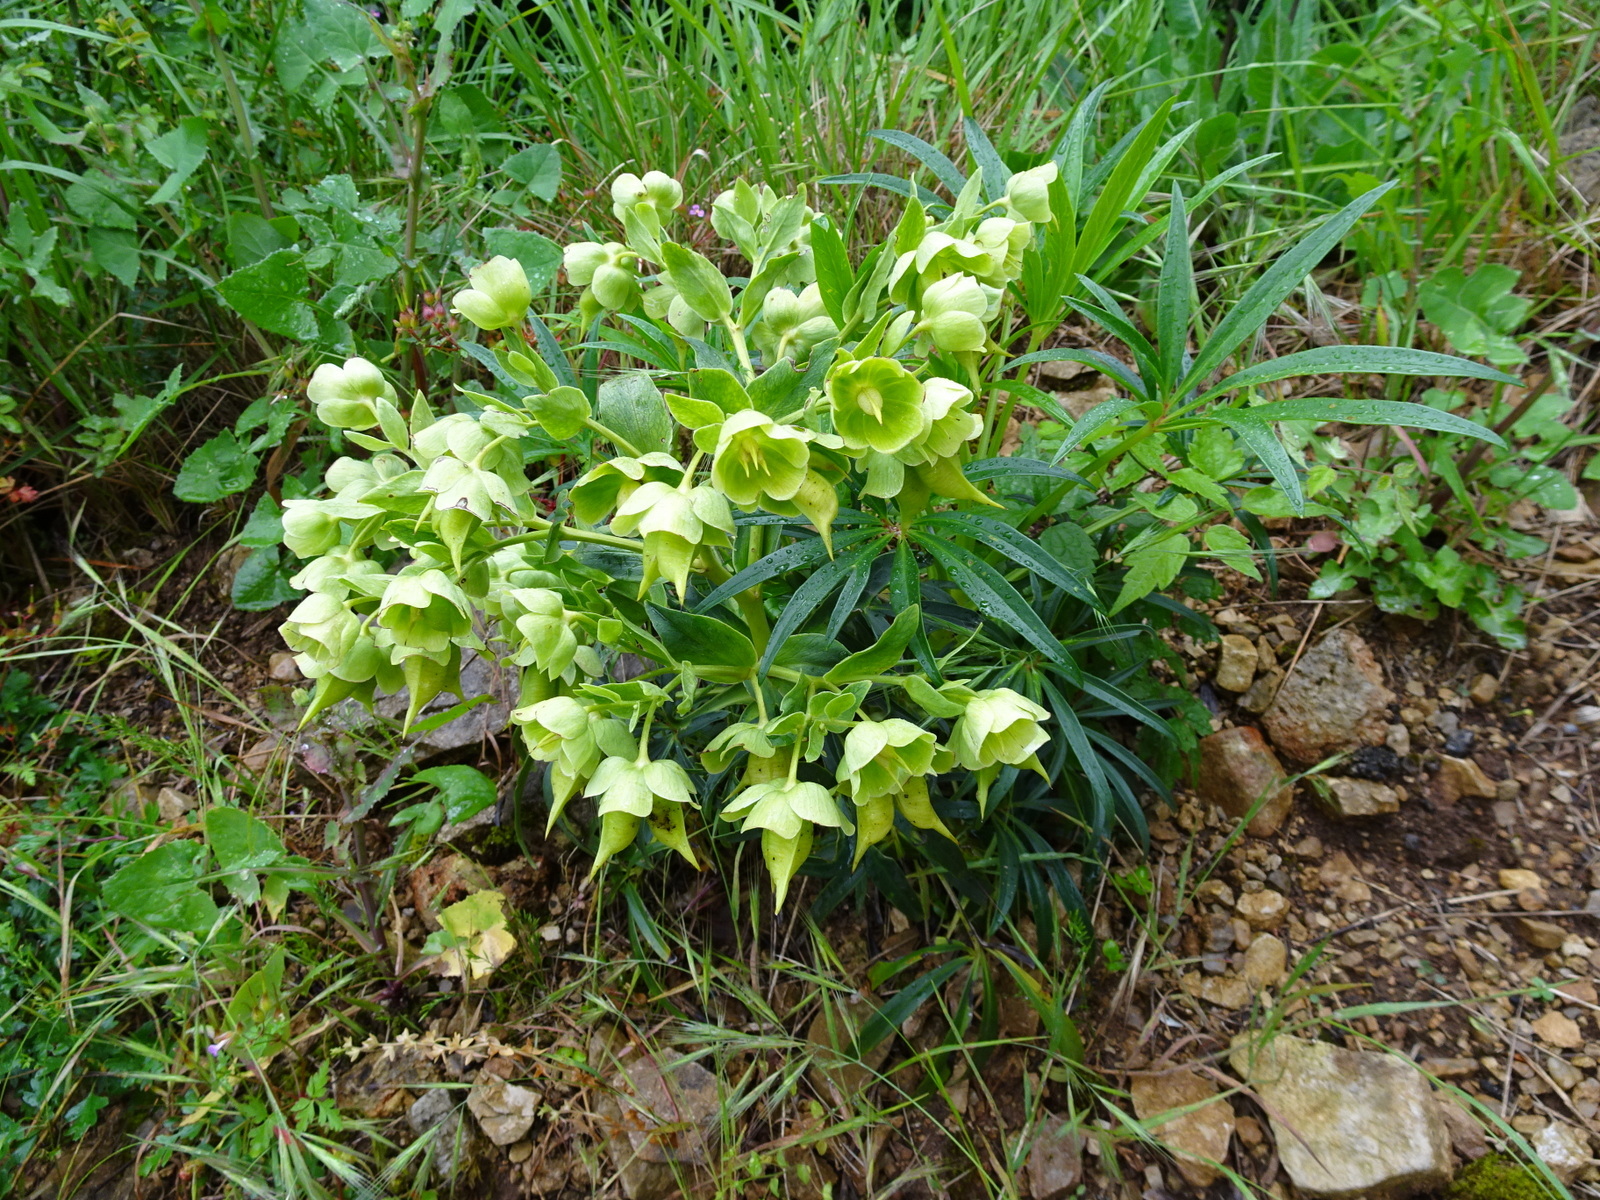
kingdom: Plantae
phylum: Tracheophyta
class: Magnoliopsida
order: Ranunculales
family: Ranunculaceae
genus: Helleborus
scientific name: Helleborus foetidus
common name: Stinking hellebore
